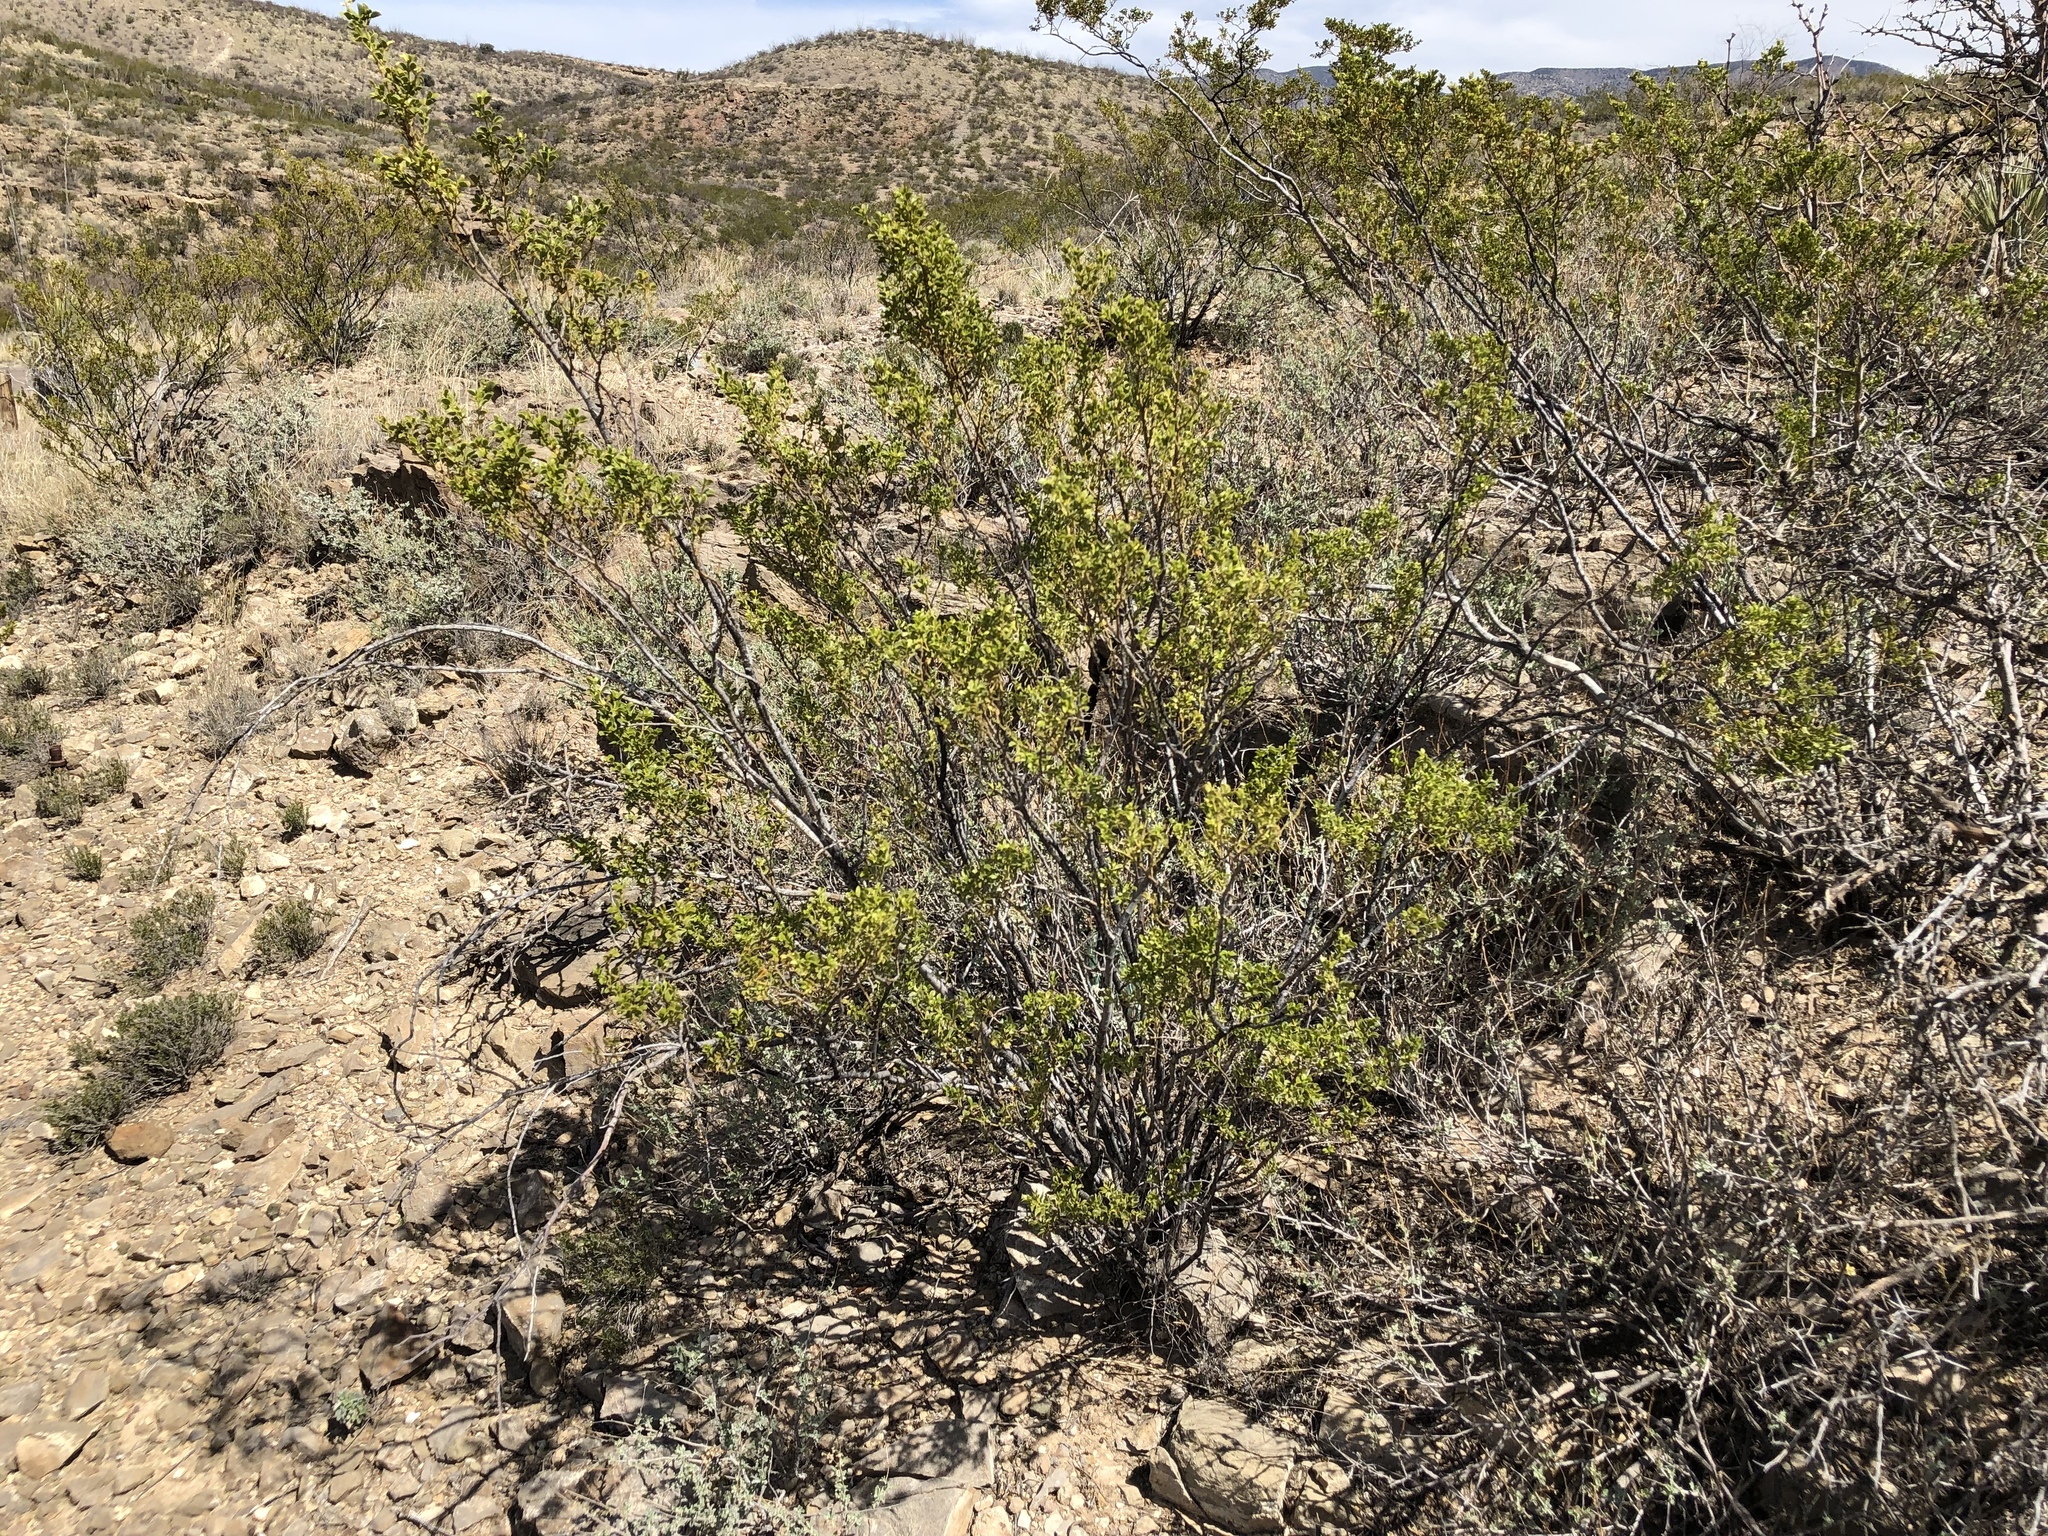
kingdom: Plantae
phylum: Tracheophyta
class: Magnoliopsida
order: Zygophyllales
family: Zygophyllaceae
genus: Larrea
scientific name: Larrea tridentata
